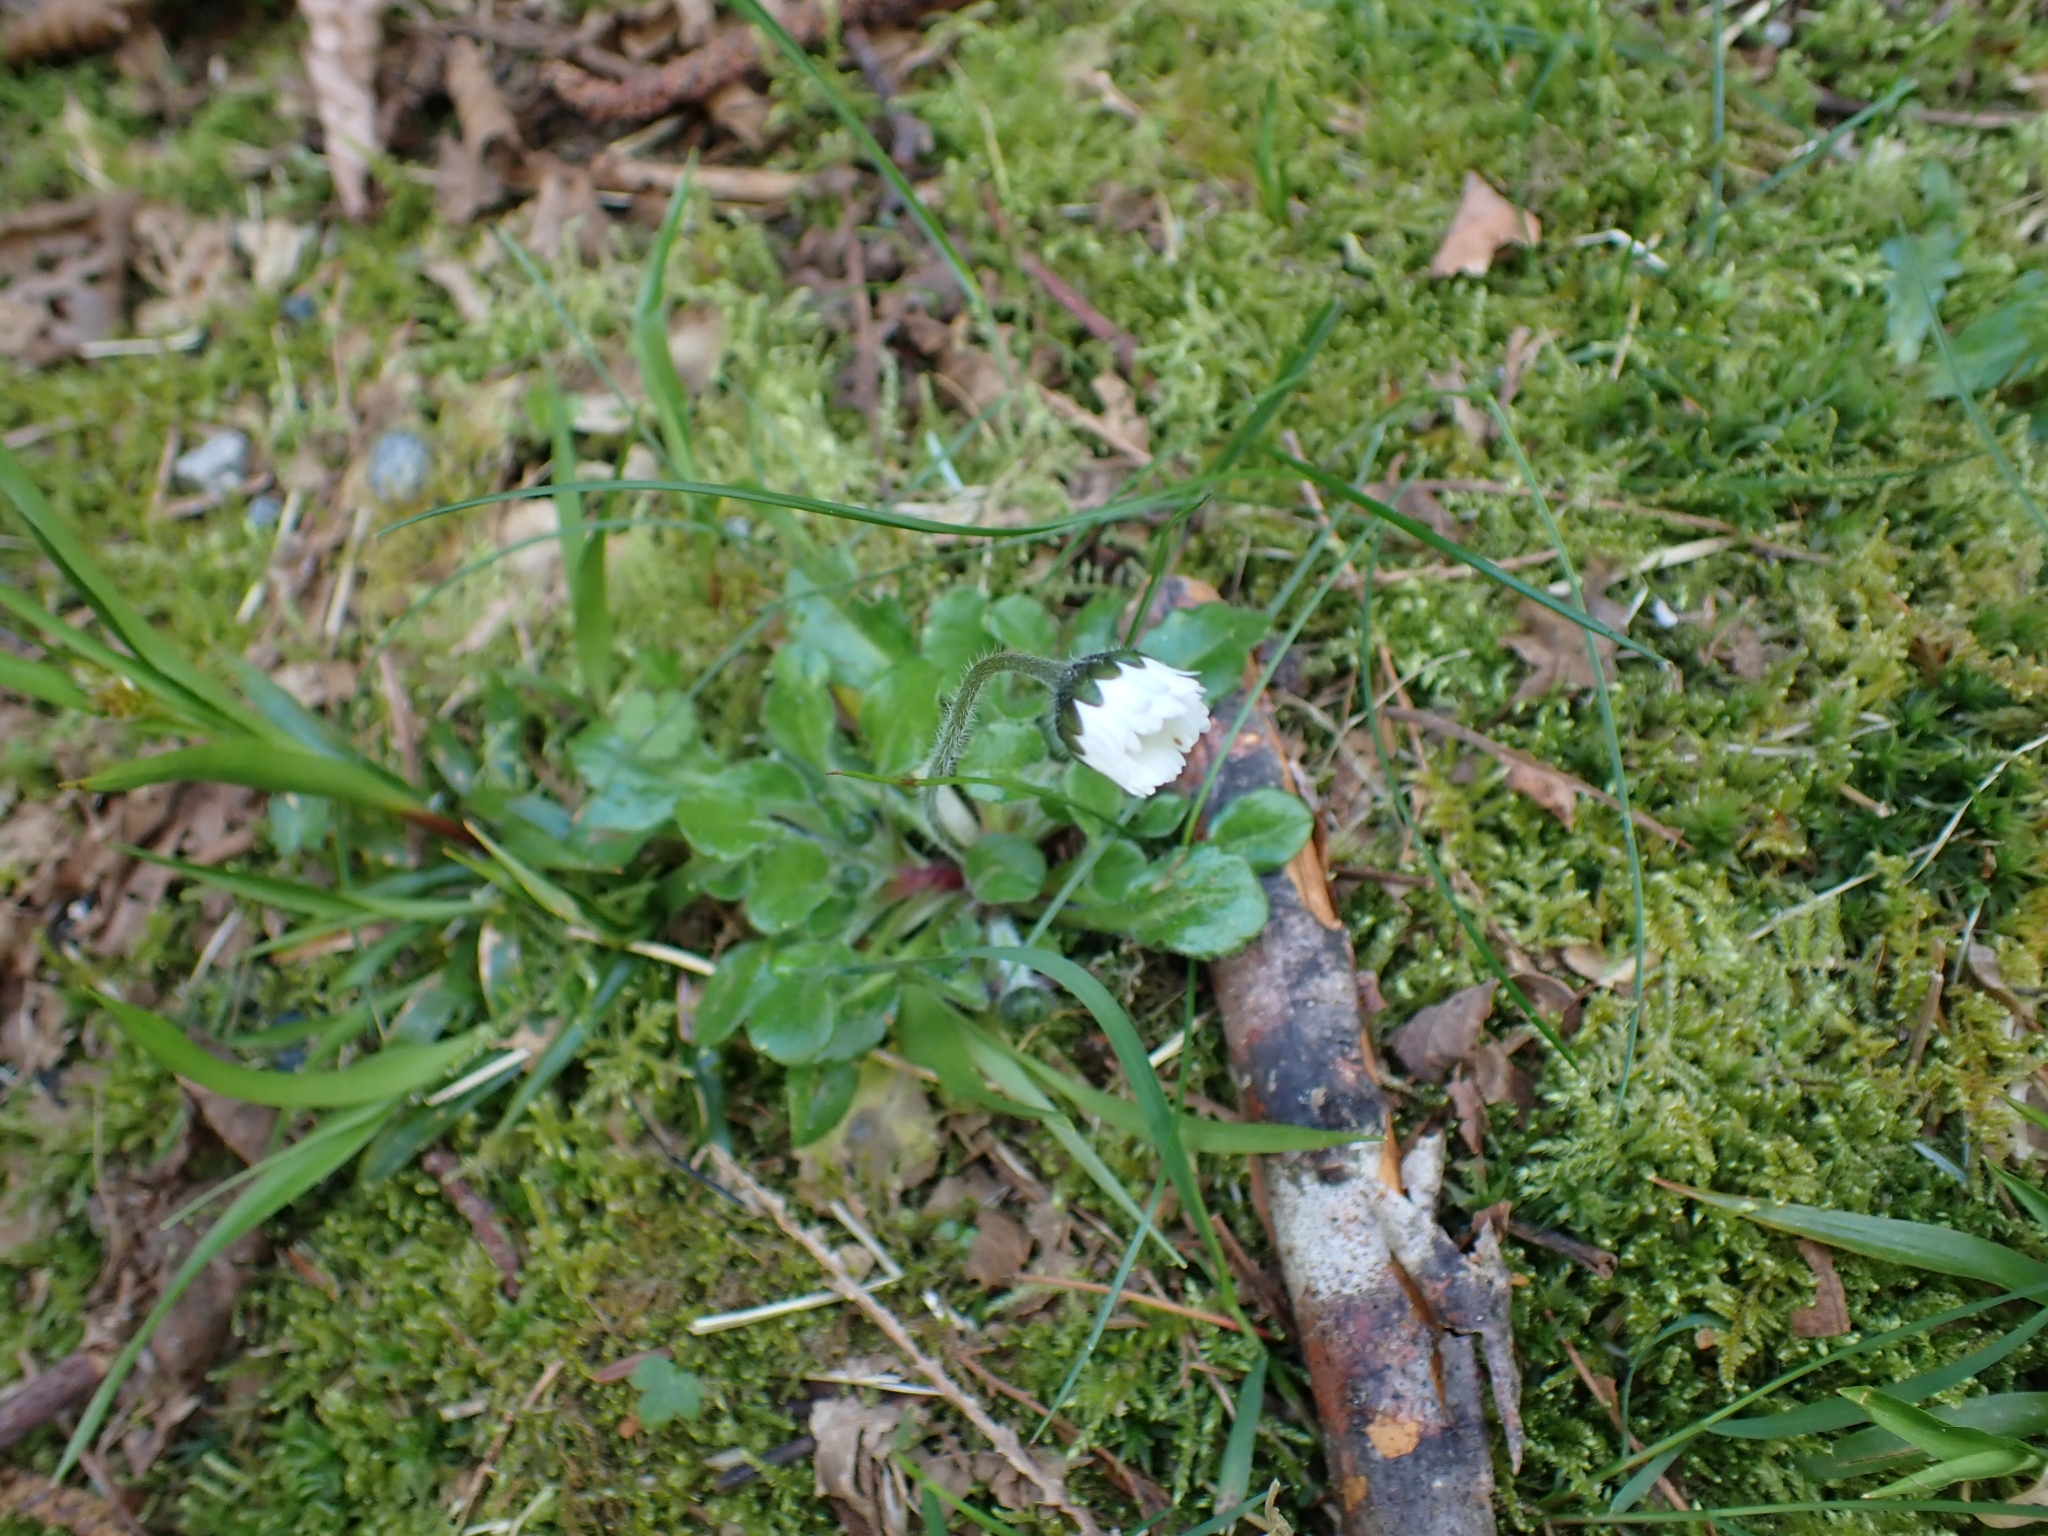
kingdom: Plantae
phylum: Tracheophyta
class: Magnoliopsida
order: Asterales
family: Asteraceae
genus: Bellis
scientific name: Bellis perennis
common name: Lawndaisy
